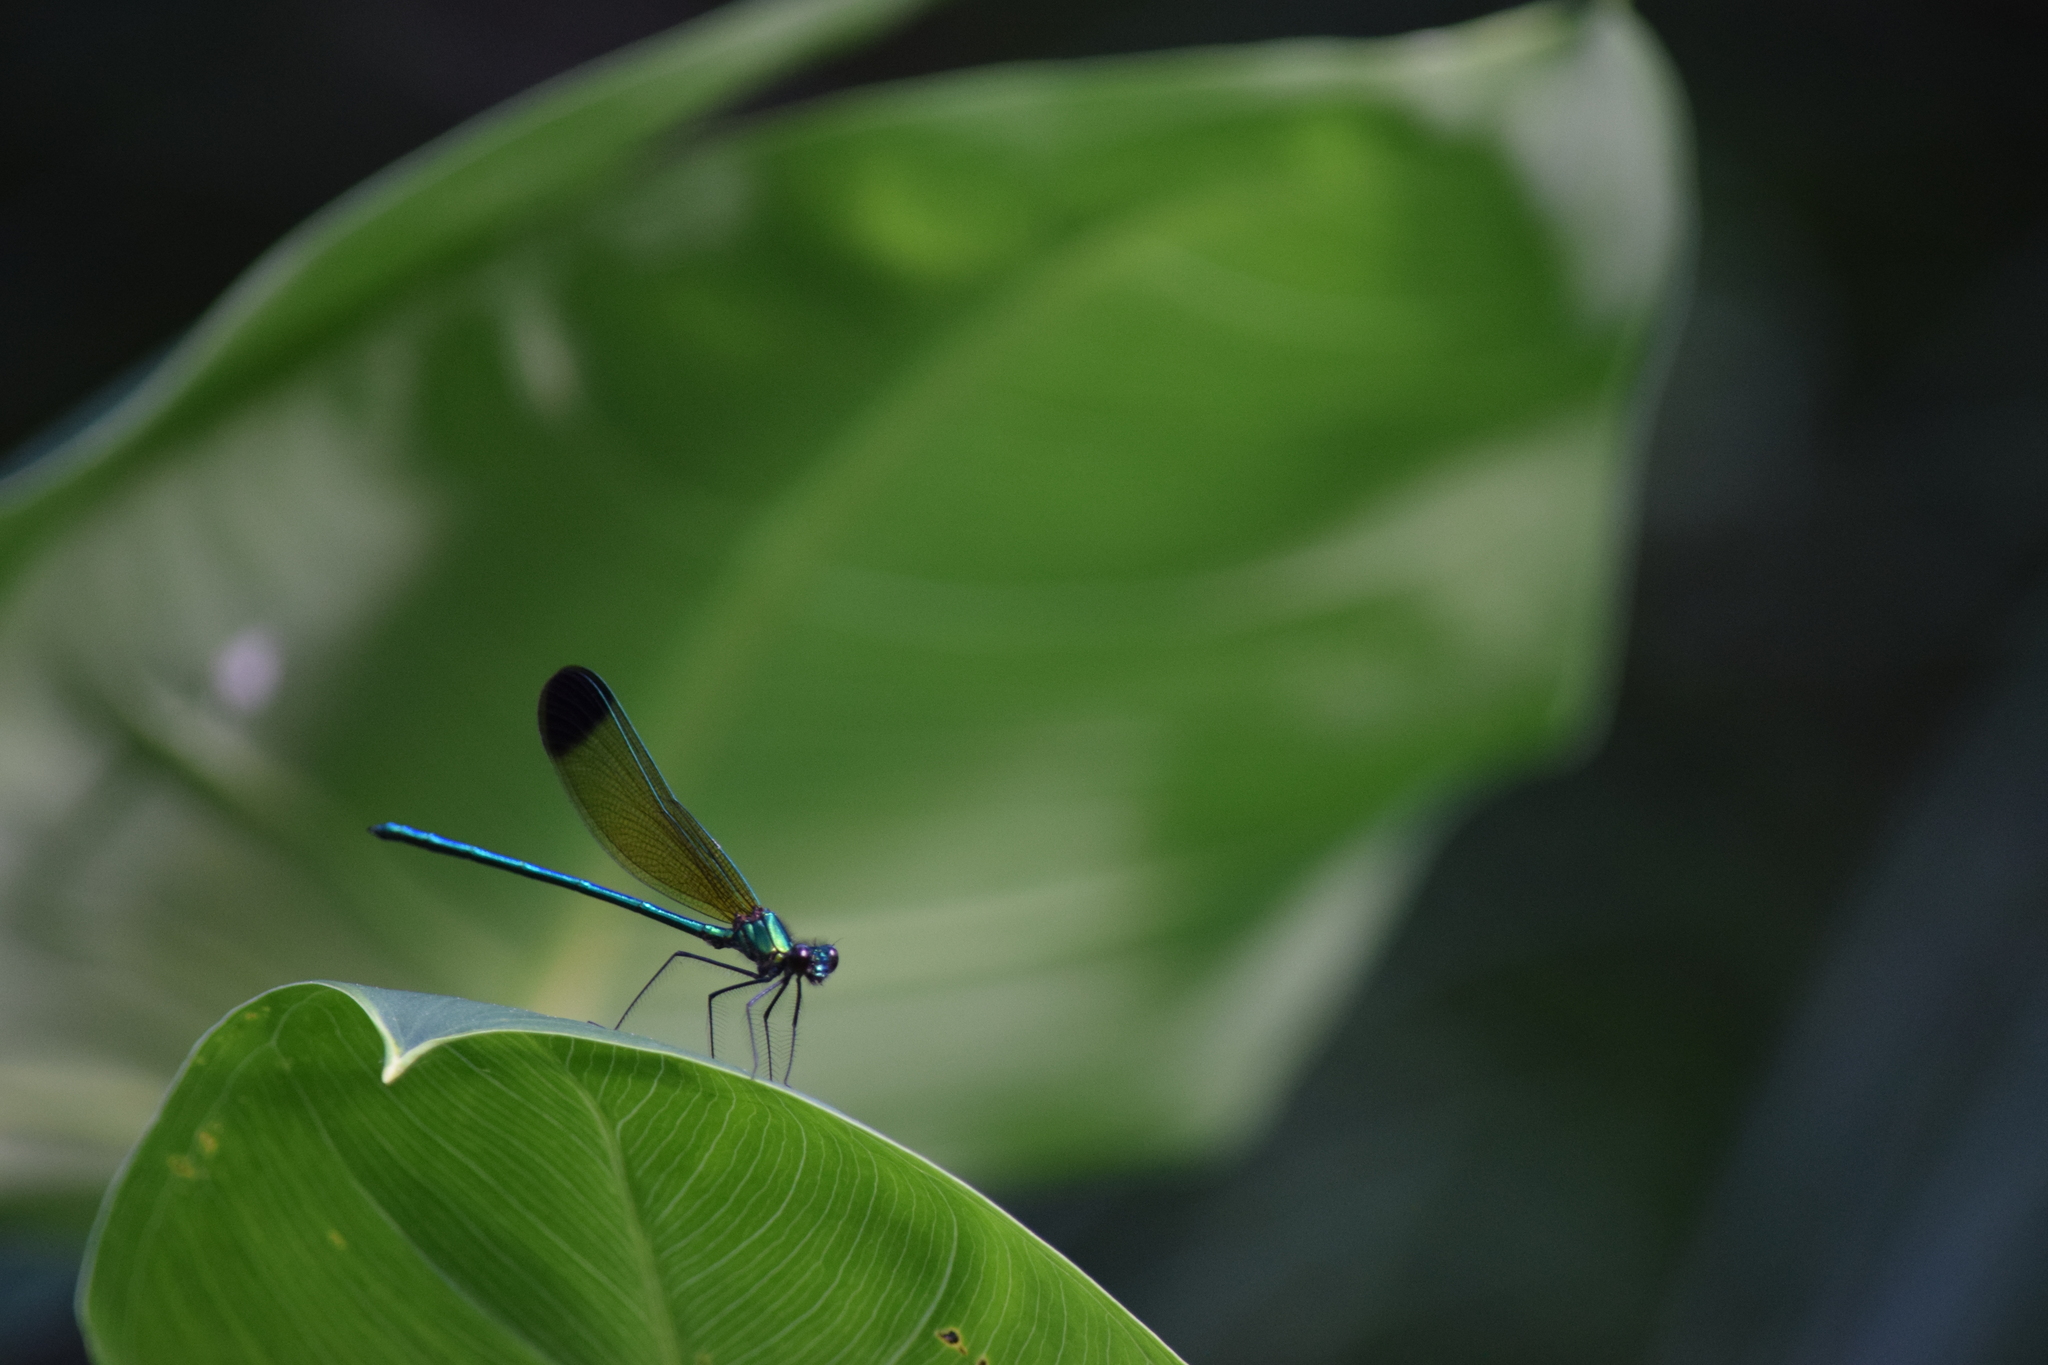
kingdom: Animalia
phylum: Arthropoda
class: Insecta
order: Odonata
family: Calopterygidae
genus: Calopteryx
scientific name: Calopteryx dimidiata
